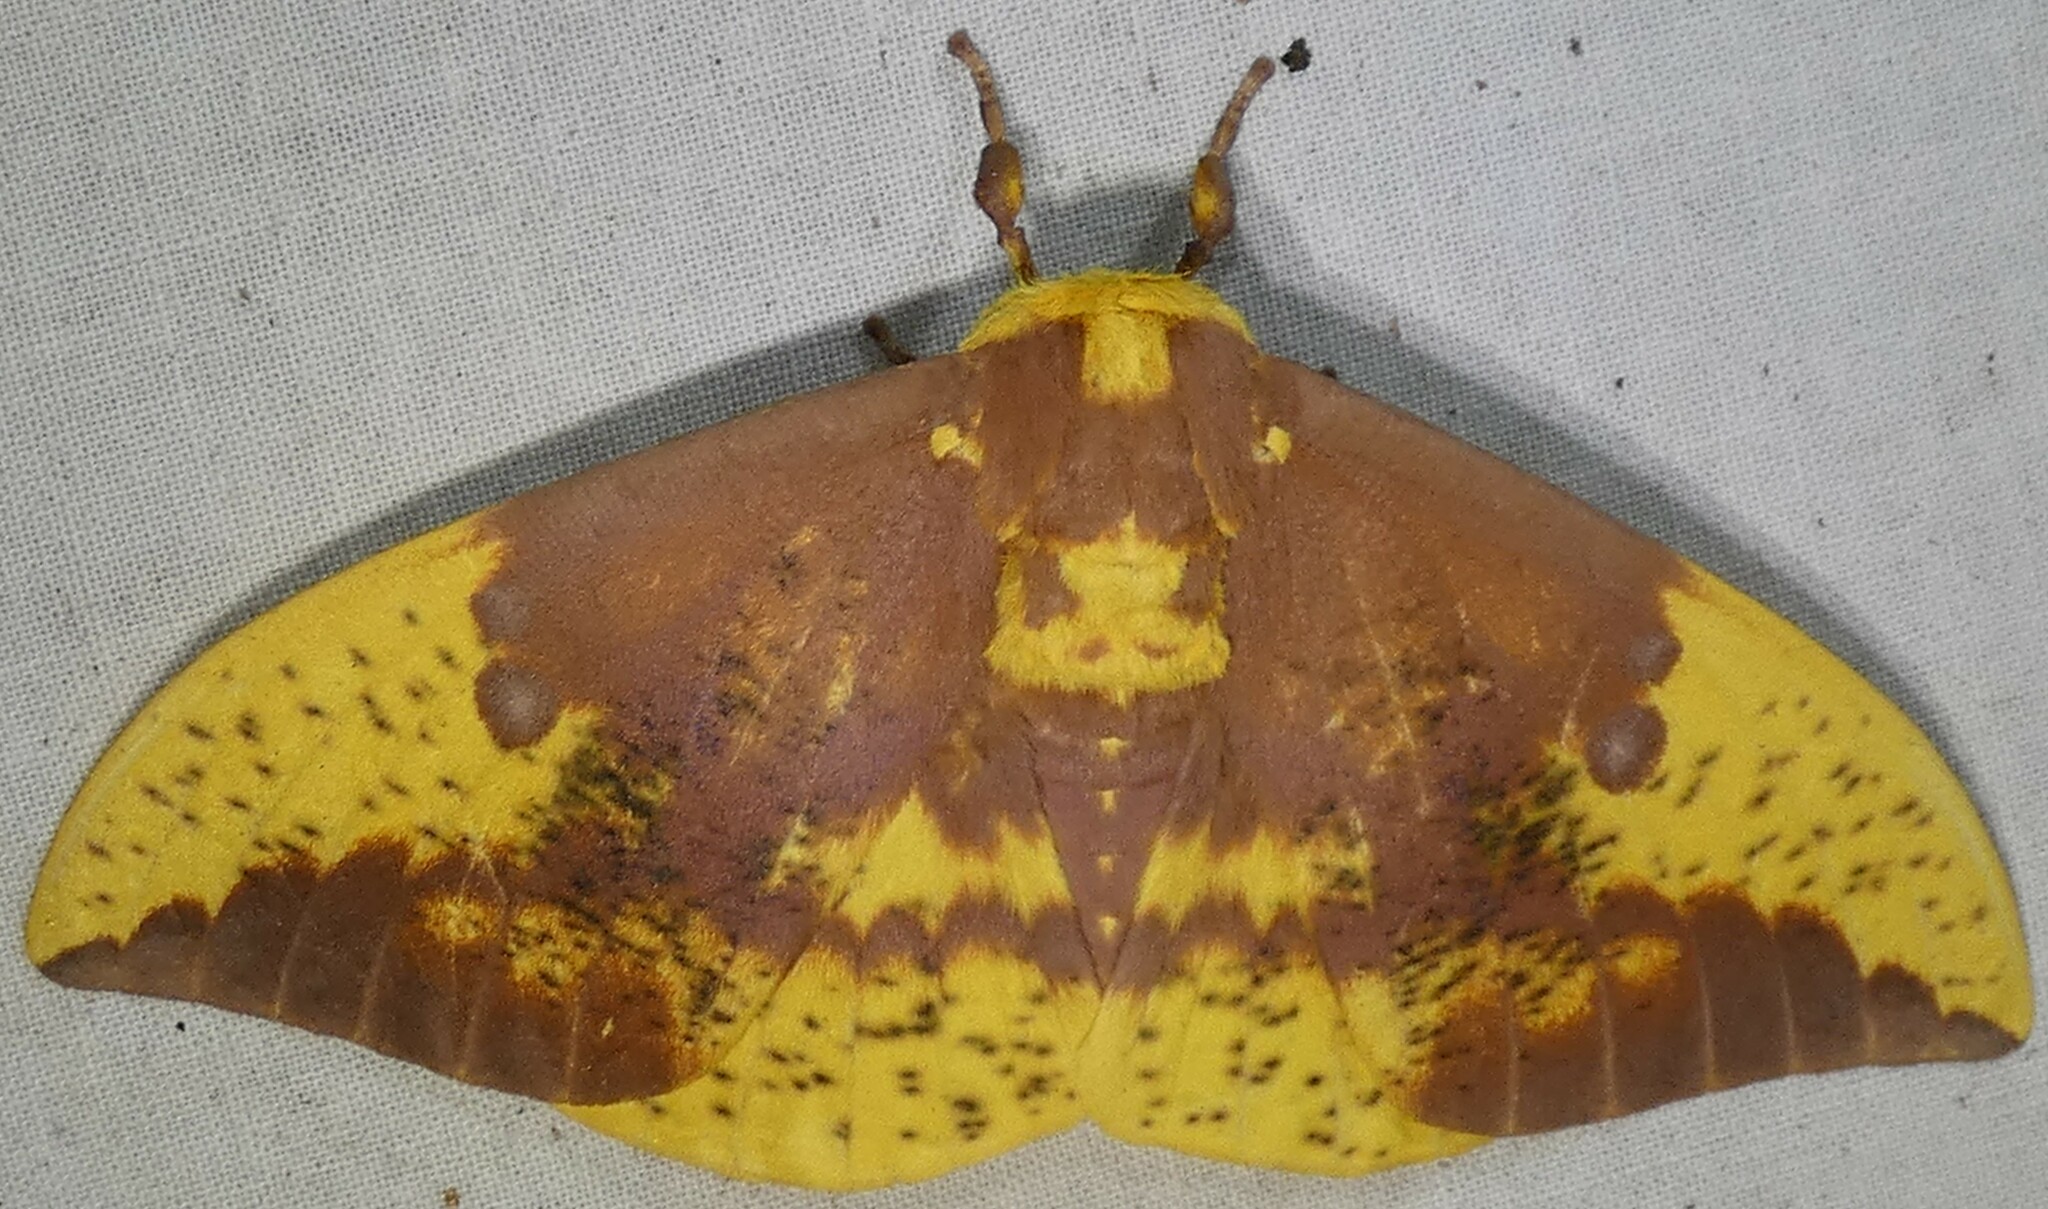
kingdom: Animalia
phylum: Arthropoda
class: Insecta
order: Lepidoptera
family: Saturniidae
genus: Eacles
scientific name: Eacles imperialis
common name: Imperial moth
